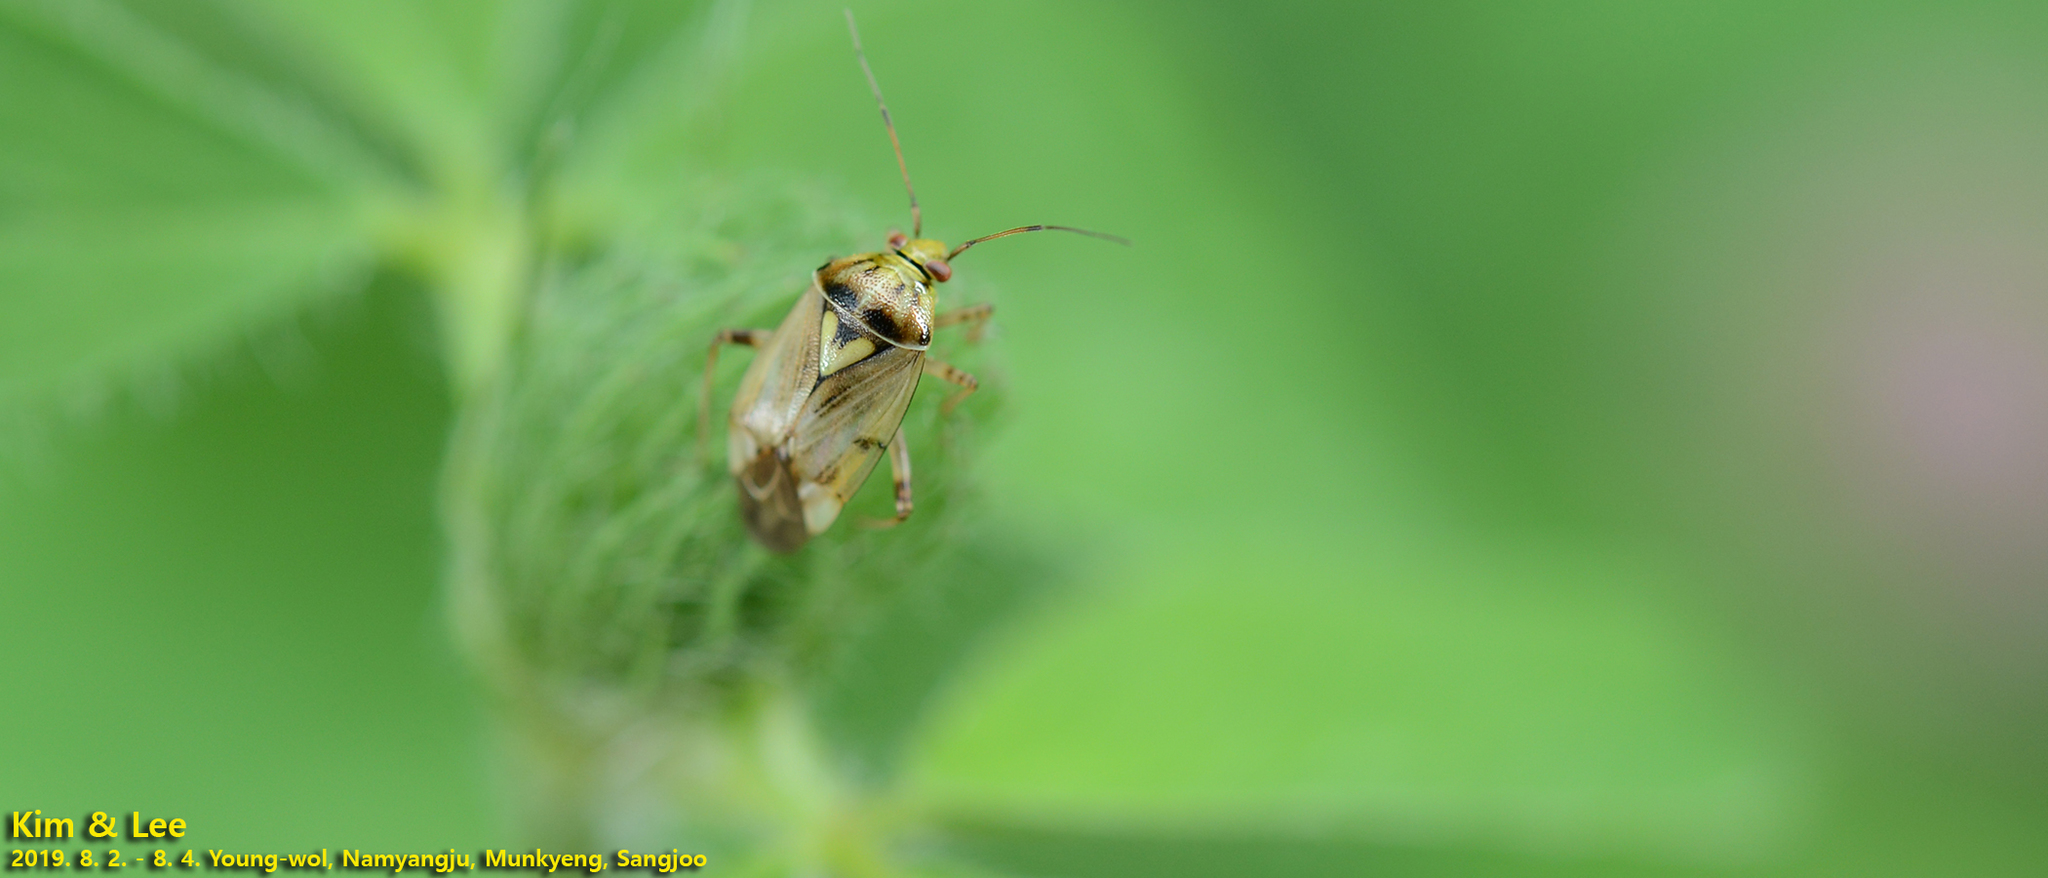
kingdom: Animalia
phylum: Arthropoda
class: Insecta
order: Hemiptera
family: Miridae
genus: Lygus
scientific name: Lygus rugulipennis
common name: European tarnished plant bug
